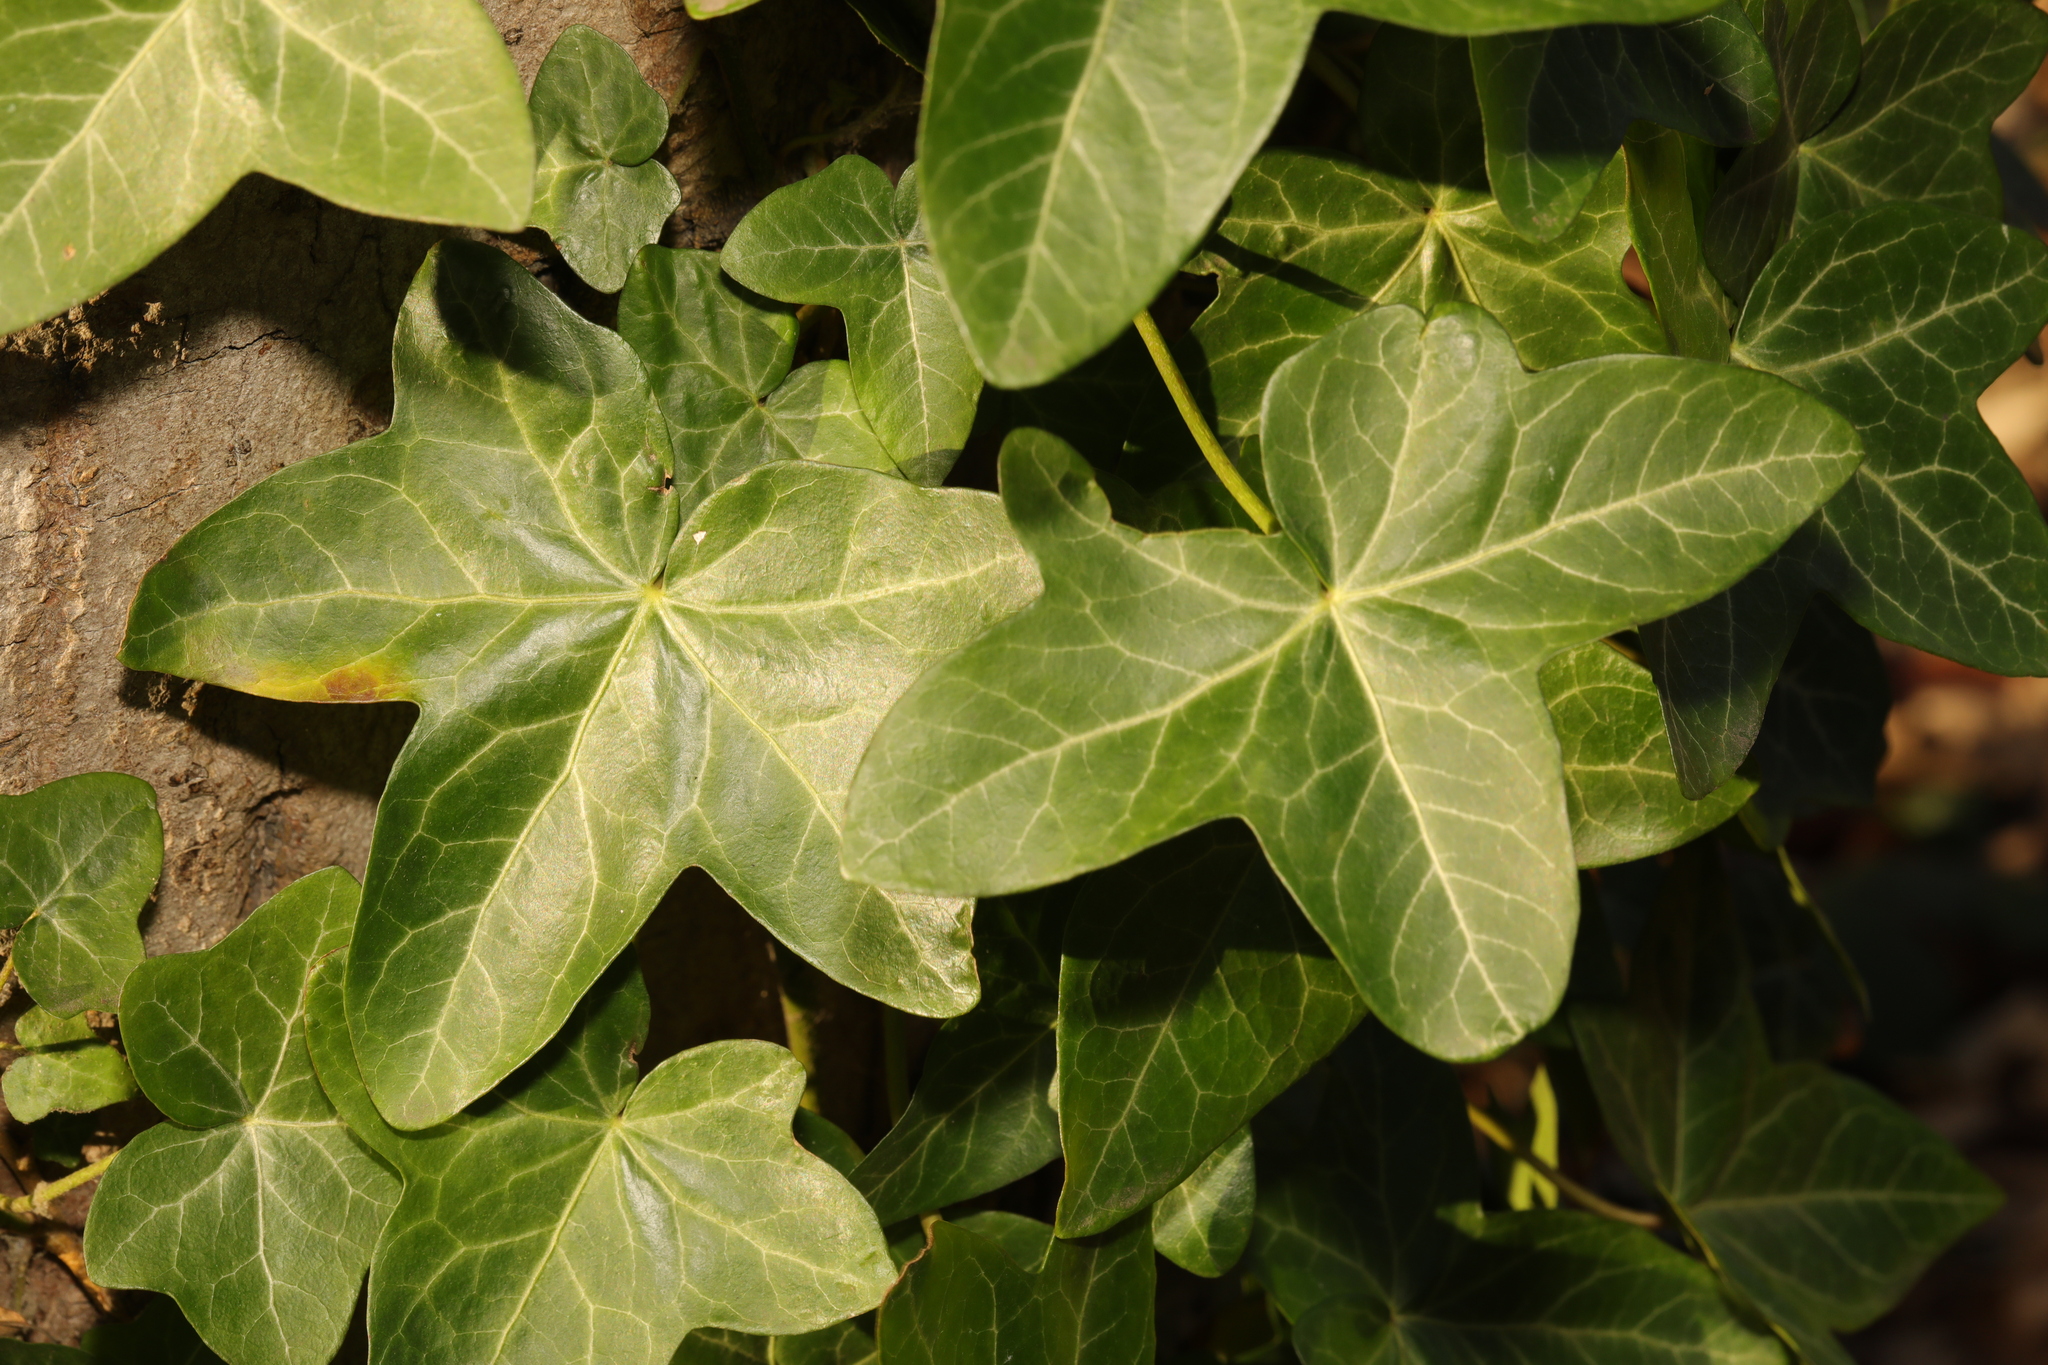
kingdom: Plantae
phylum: Tracheophyta
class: Magnoliopsida
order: Apiales
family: Araliaceae
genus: Hedera
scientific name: Hedera helix
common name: Ivy
